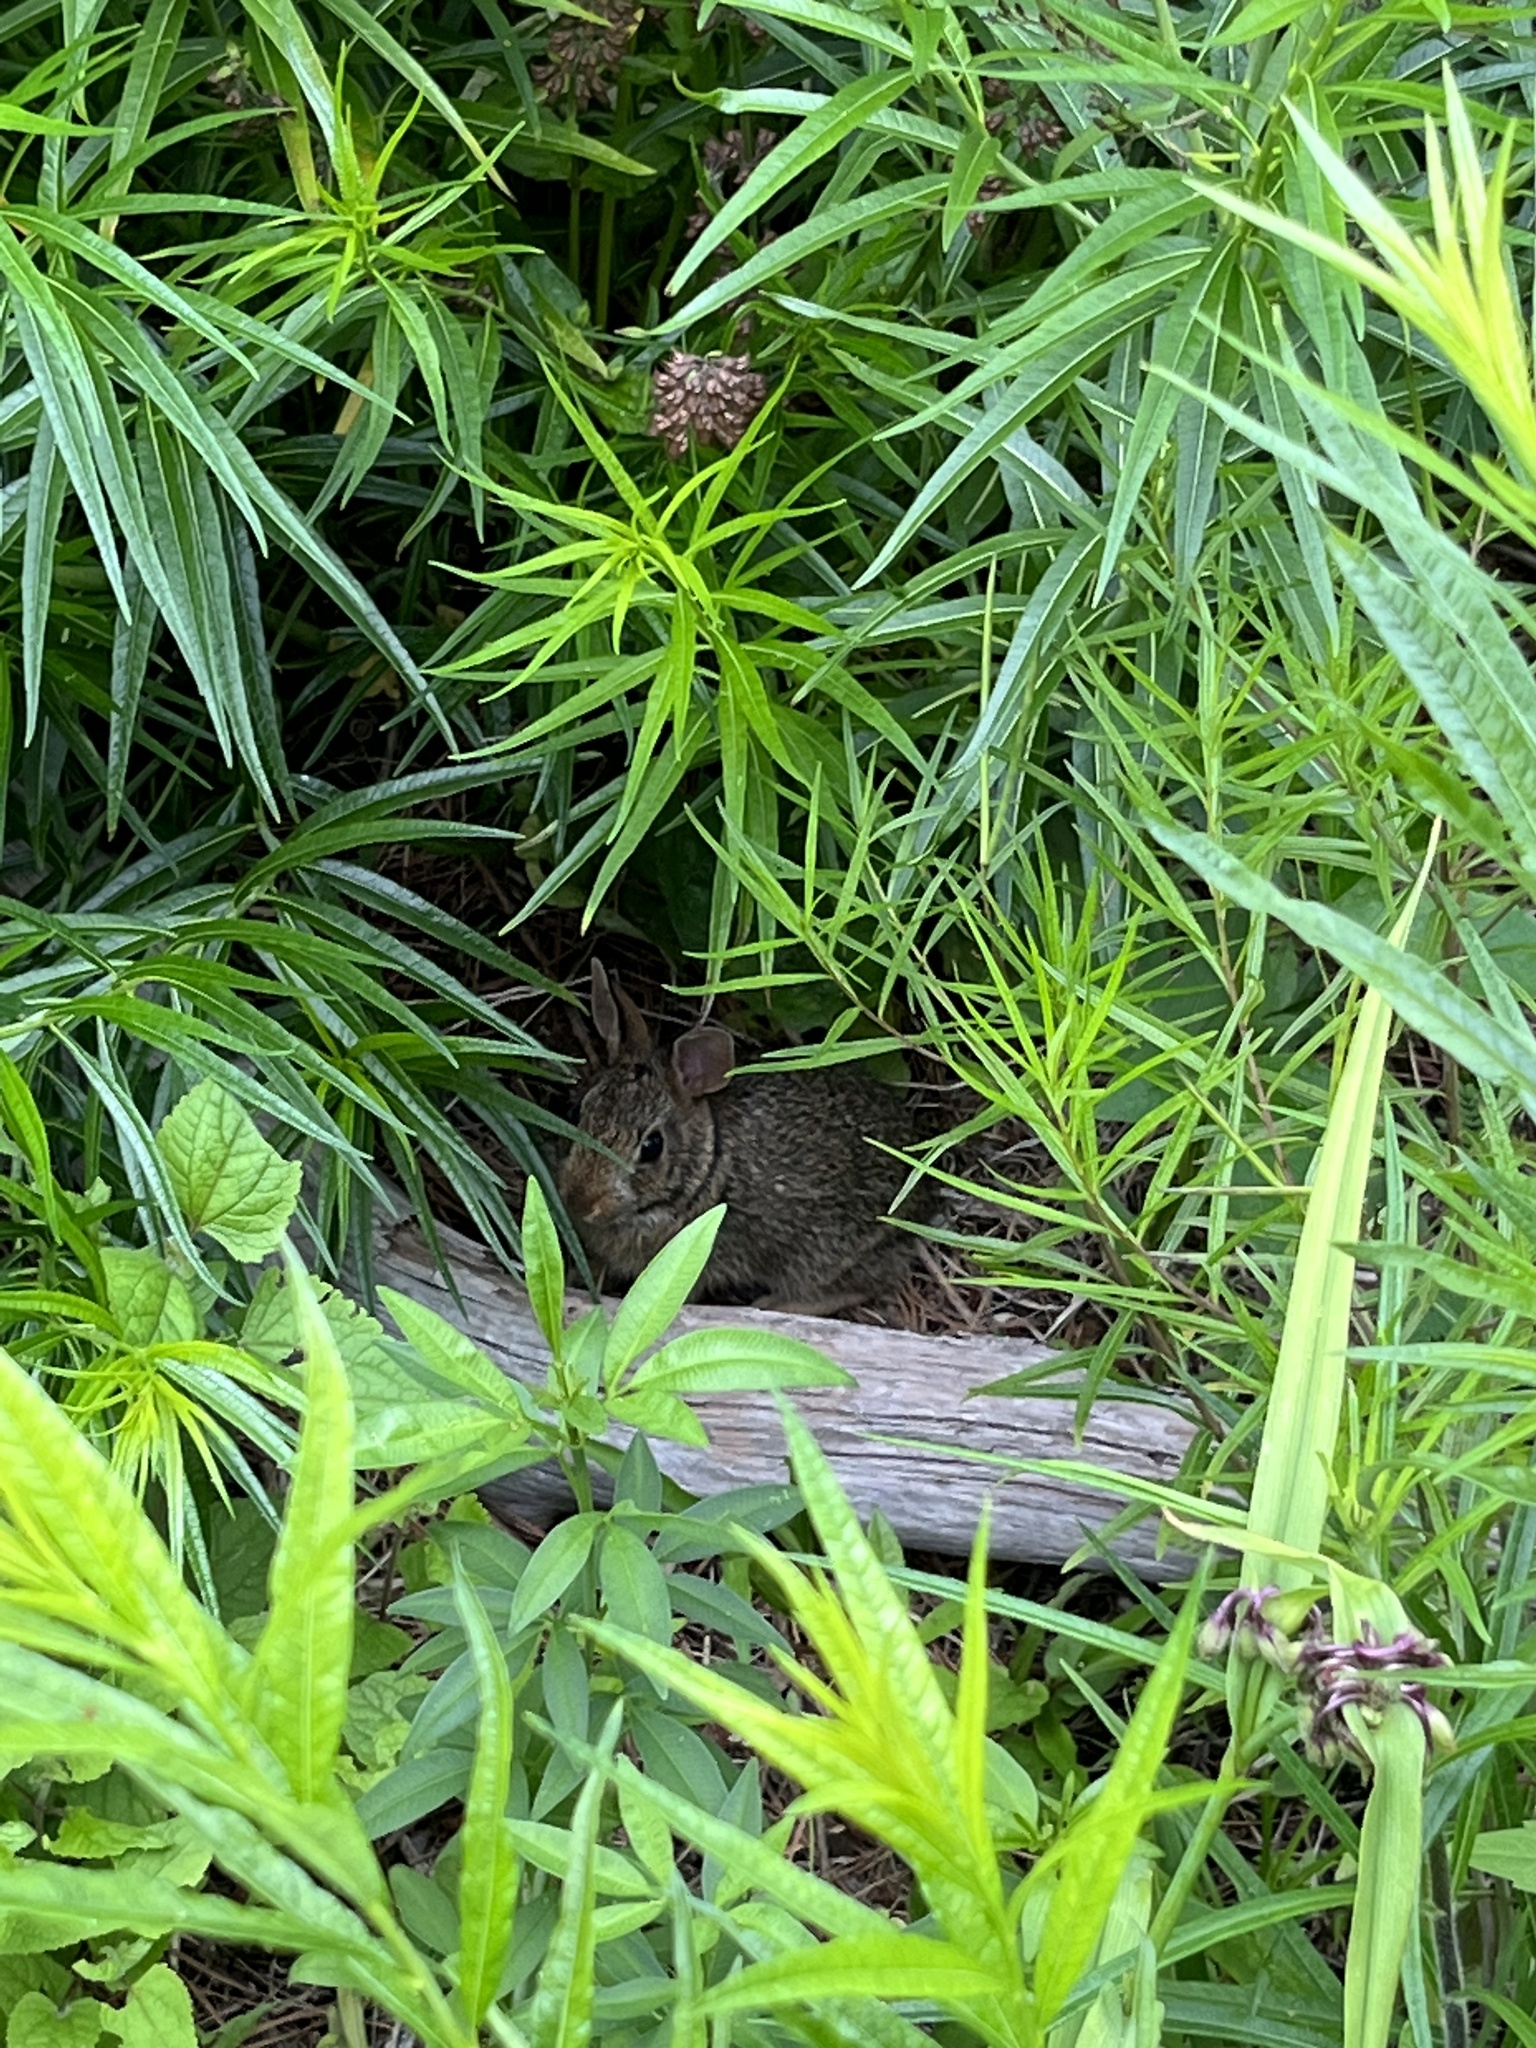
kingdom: Animalia
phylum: Chordata
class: Mammalia
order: Lagomorpha
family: Leporidae
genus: Sylvilagus
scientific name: Sylvilagus floridanus
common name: Eastern cottontail
